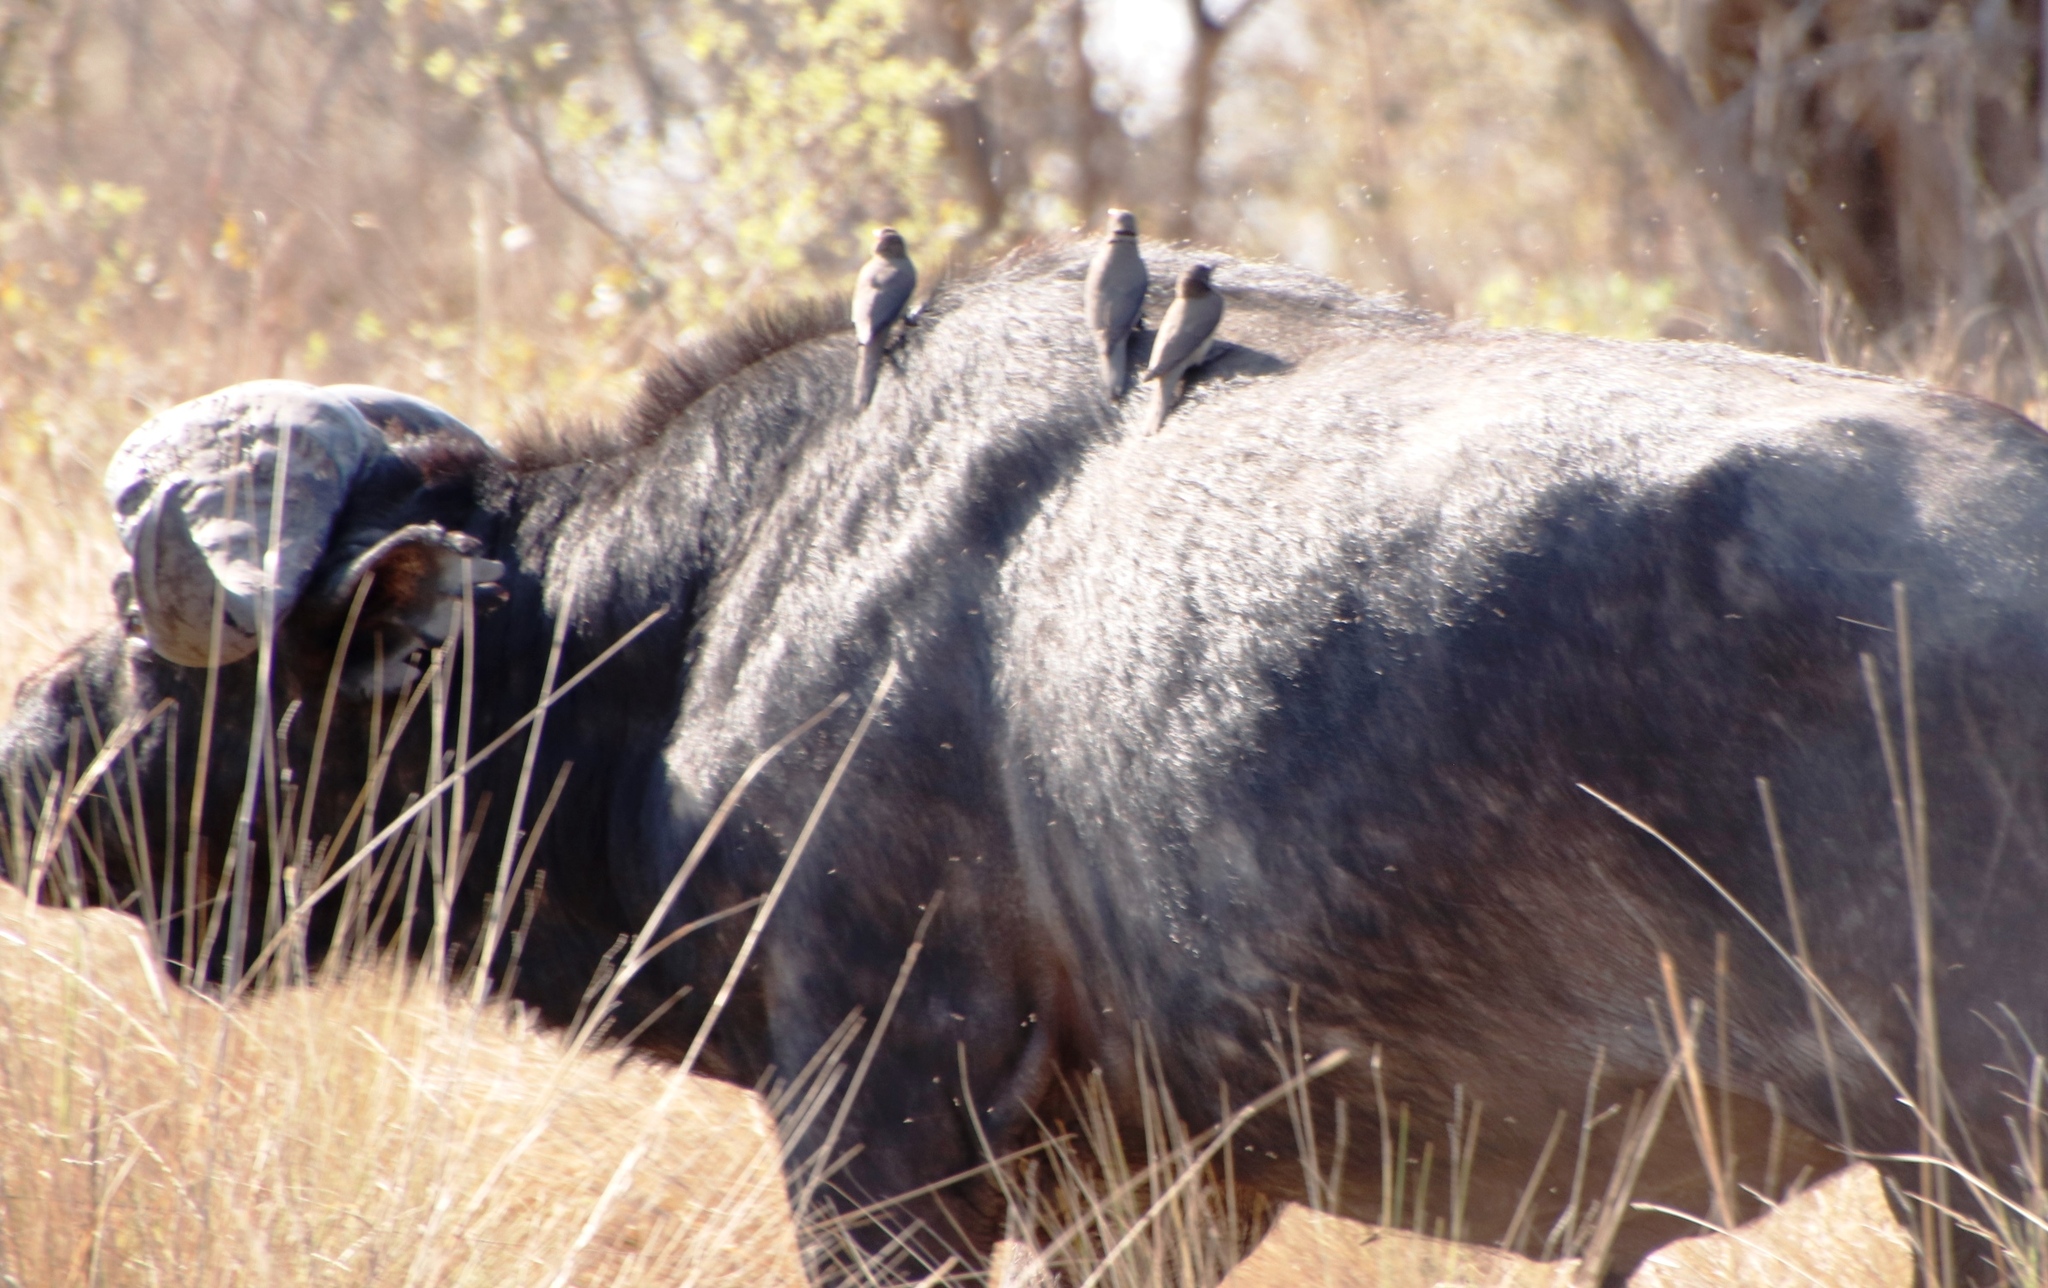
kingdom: Animalia
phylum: Chordata
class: Aves
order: Passeriformes
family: Buphagidae
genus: Buphagus
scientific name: Buphagus erythrorhynchus
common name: Red-billed oxpecker
